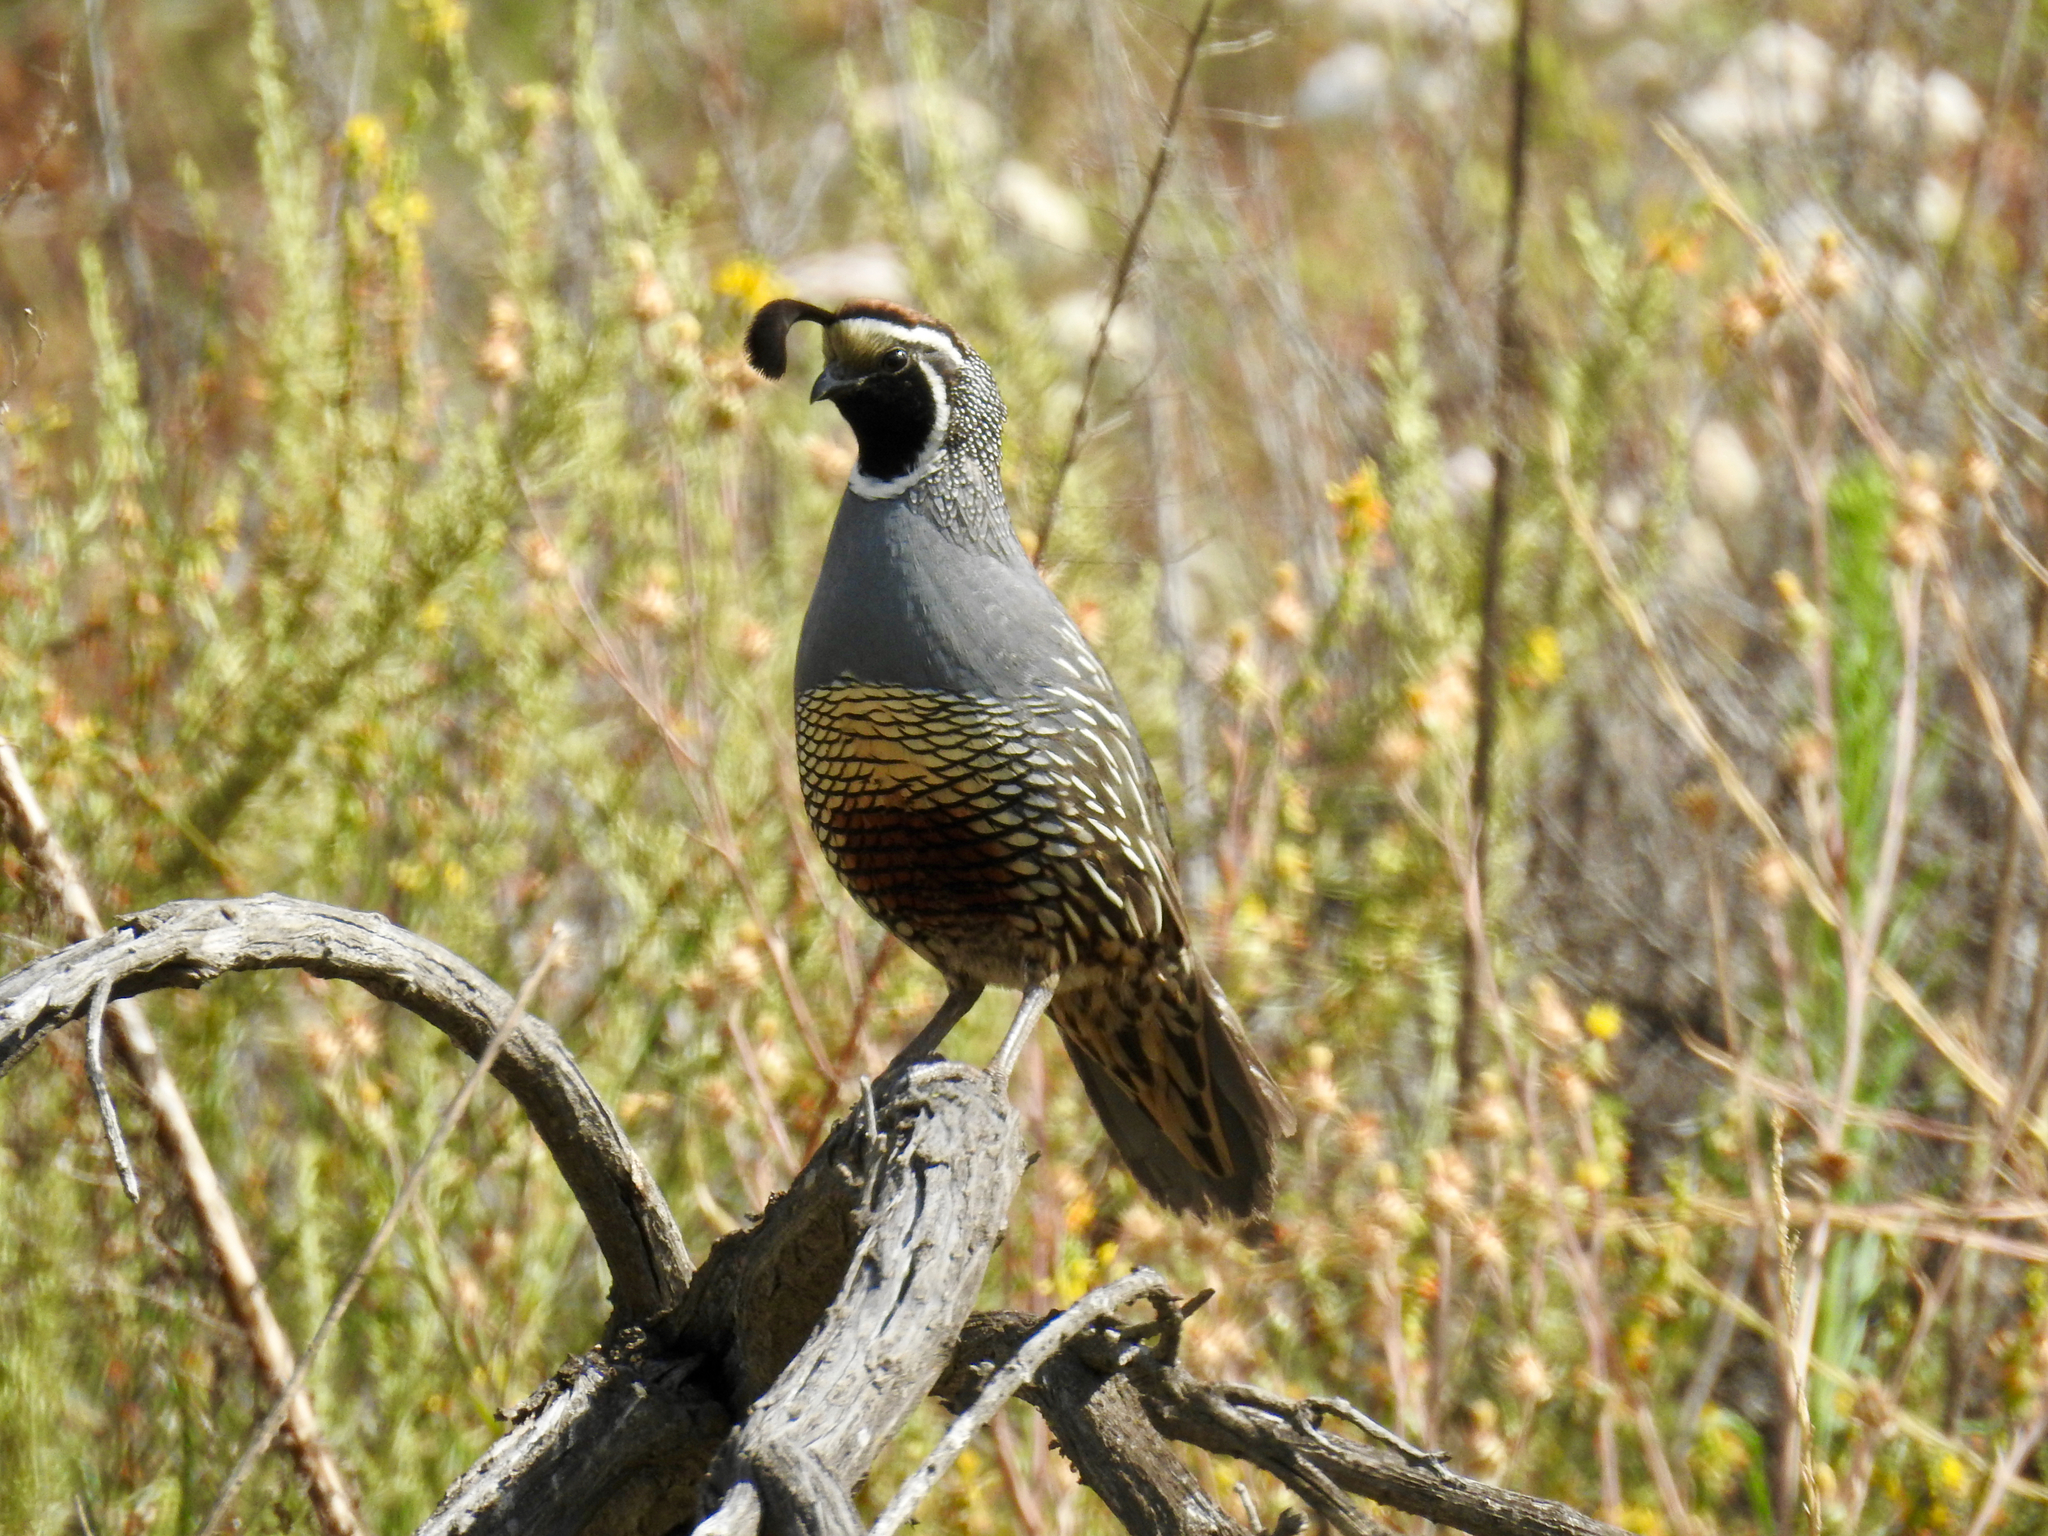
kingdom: Animalia
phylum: Chordata
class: Aves
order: Galliformes
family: Odontophoridae
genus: Callipepla
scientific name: Callipepla californica
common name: California quail
